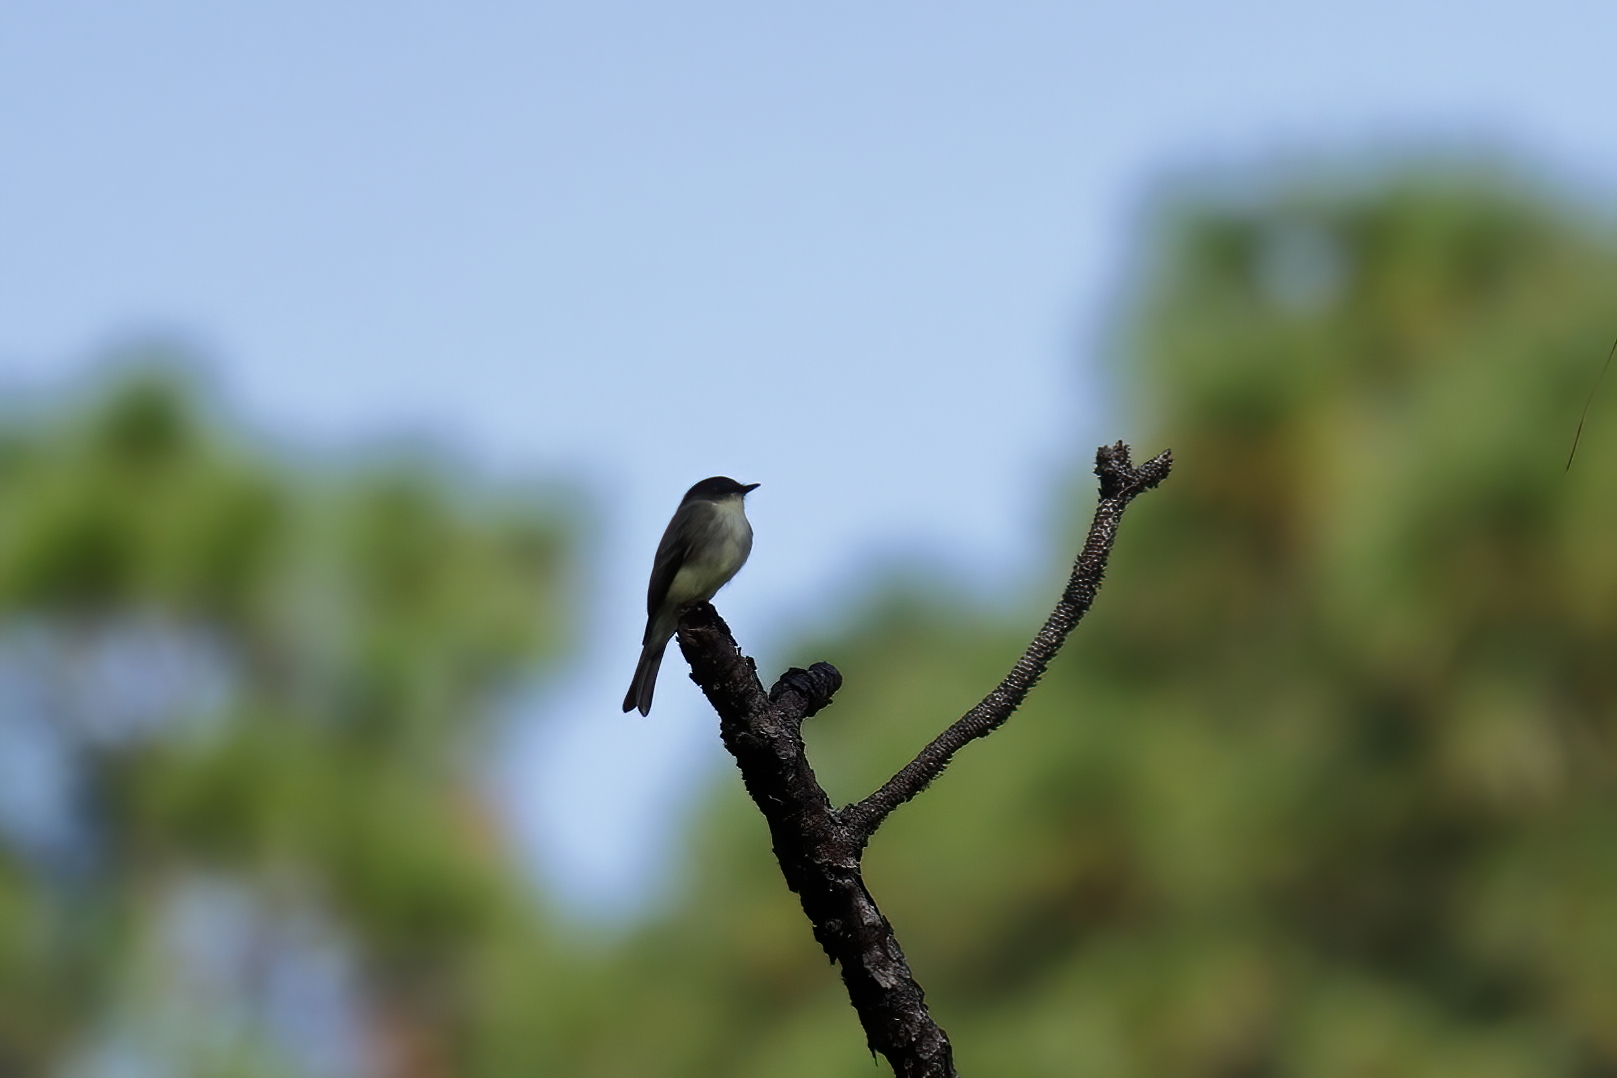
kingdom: Animalia
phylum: Chordata
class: Aves
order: Passeriformes
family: Tyrannidae
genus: Sayornis
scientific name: Sayornis phoebe
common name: Eastern phoebe
